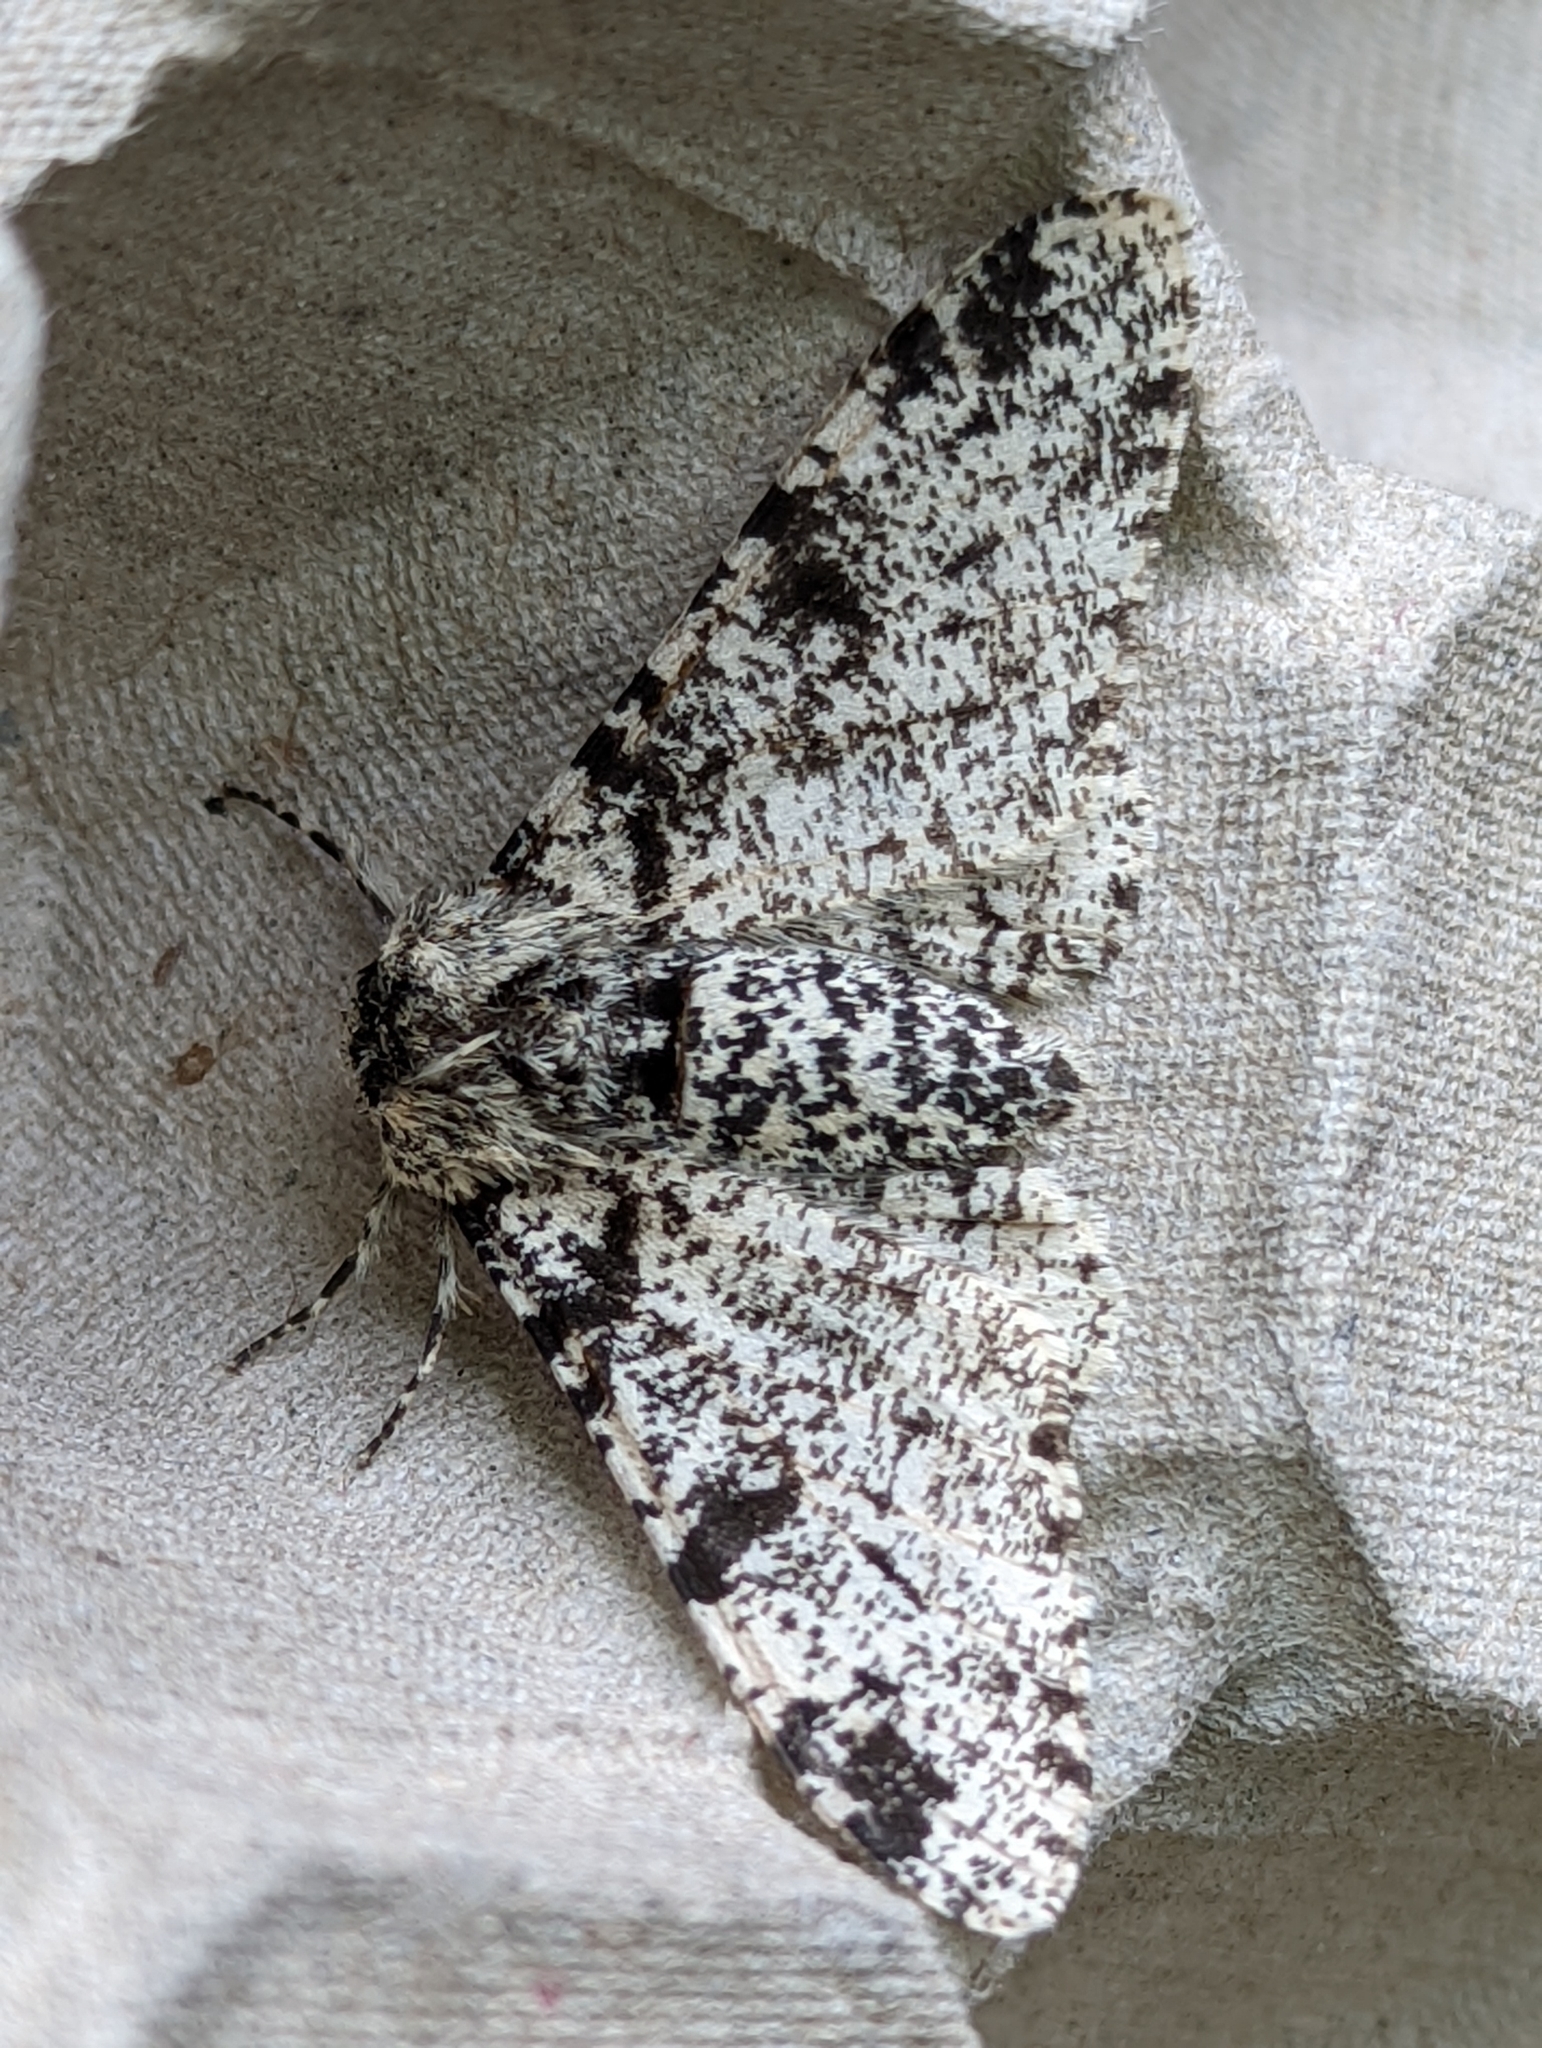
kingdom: Animalia
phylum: Arthropoda
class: Insecta
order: Lepidoptera
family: Geometridae
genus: Biston
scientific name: Biston betularia
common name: Peppered moth
